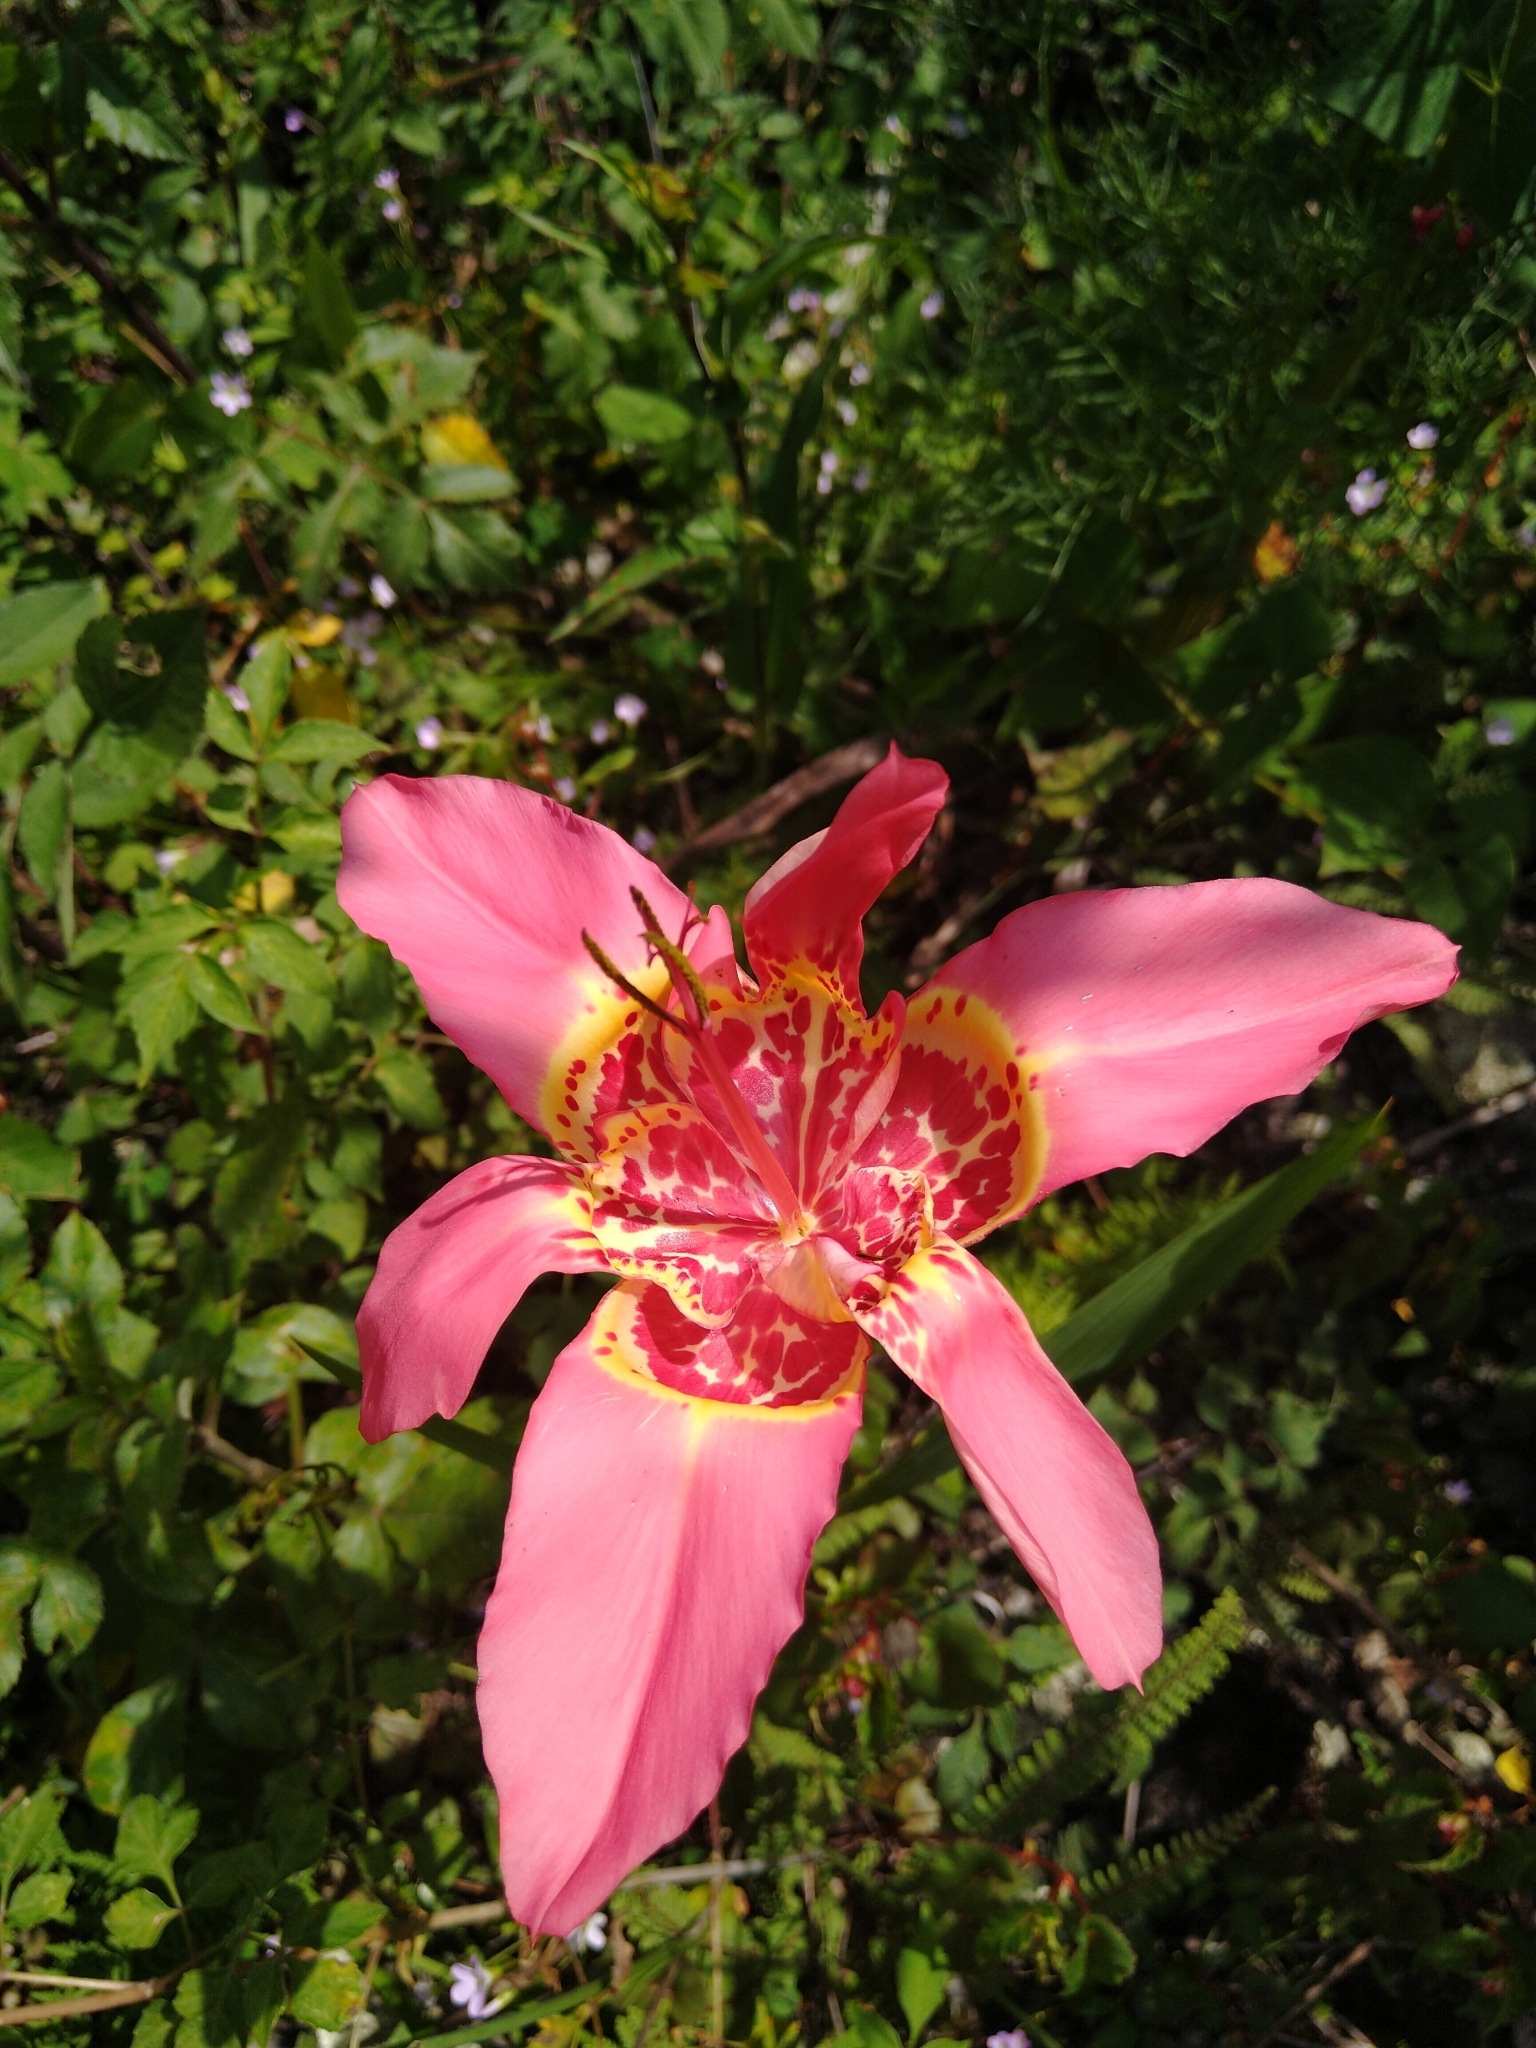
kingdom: Plantae
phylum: Tracheophyta
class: Liliopsida
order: Asparagales
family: Iridaceae
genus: Tigridia
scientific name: Tigridia pavonia
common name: Peacock-flower
